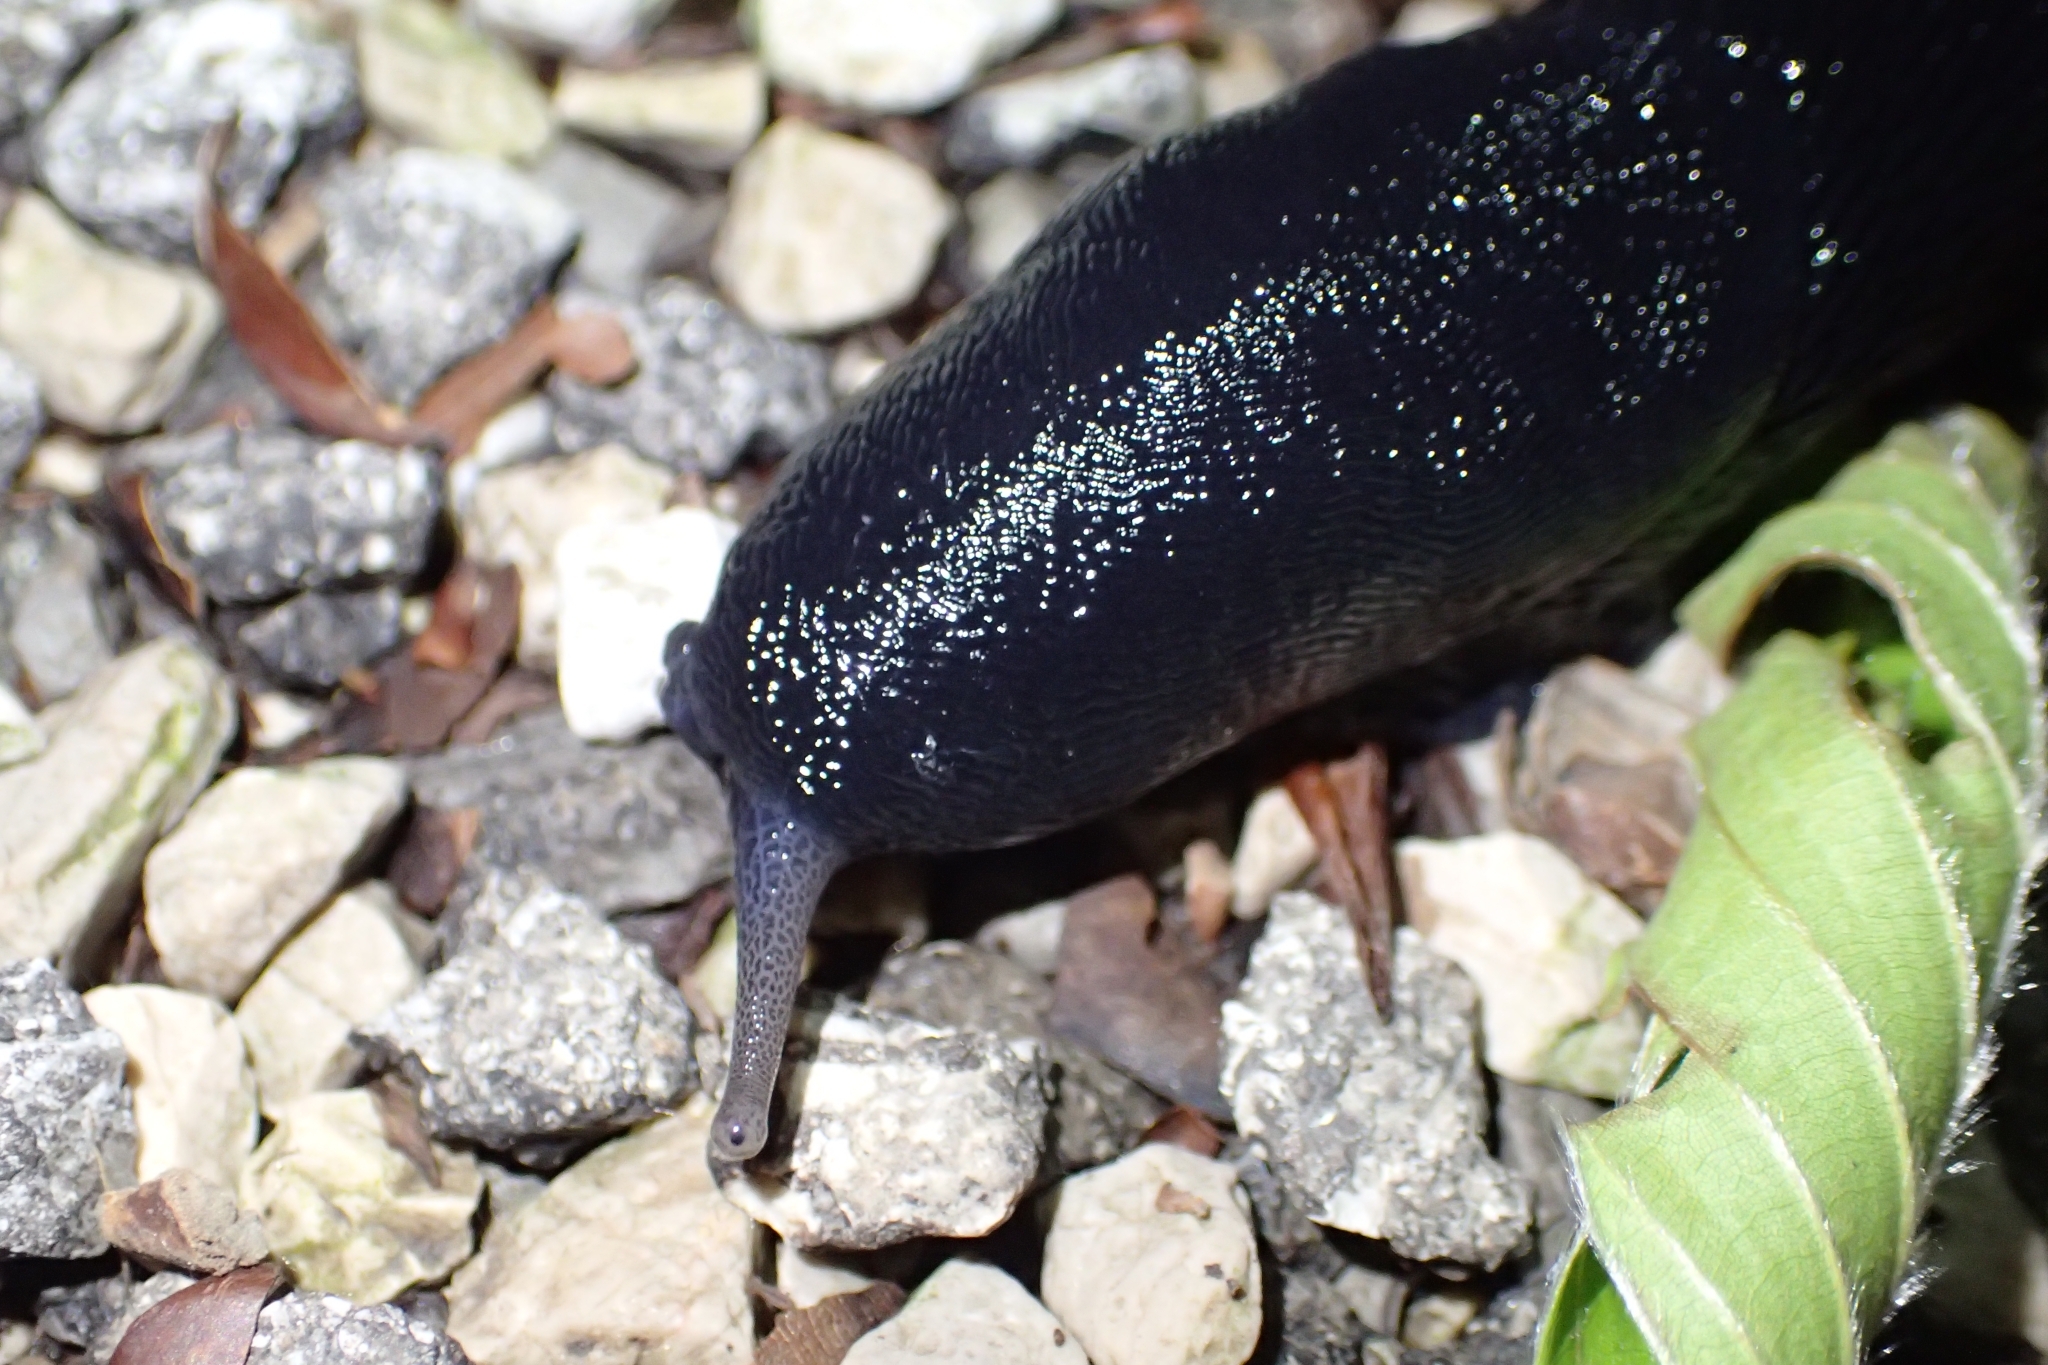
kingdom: Animalia
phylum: Mollusca
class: Gastropoda
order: Stylommatophora
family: Limacidae
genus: Limax
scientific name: Limax cinereoniger
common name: Ash-black slug
